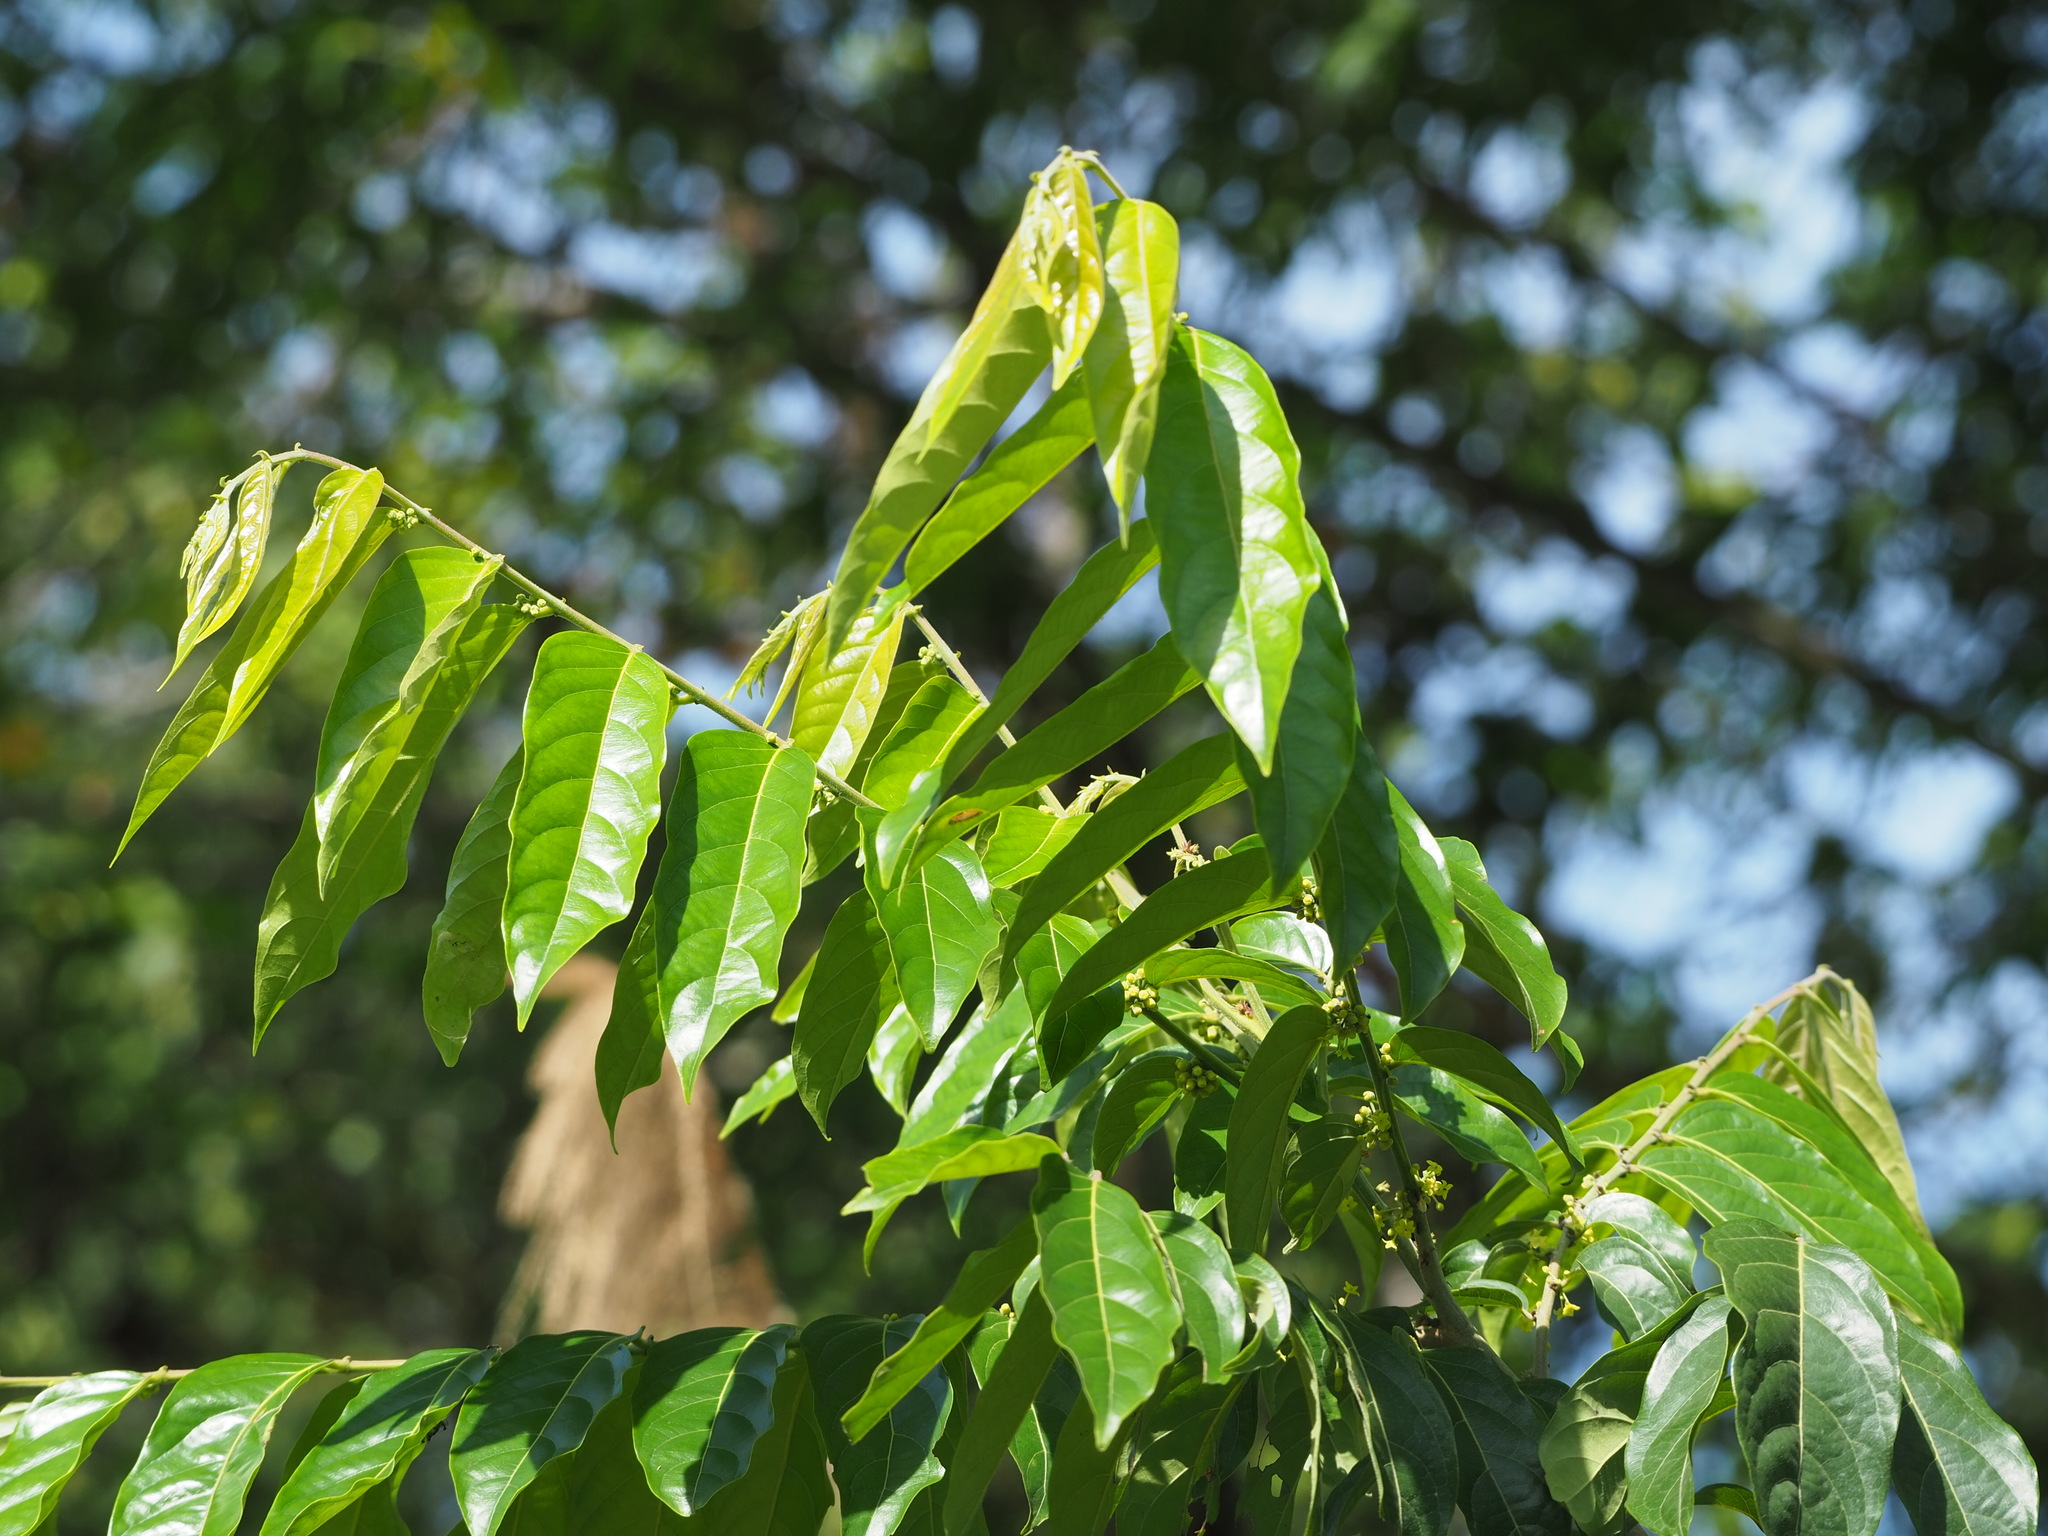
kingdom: Plantae
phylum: Tracheophyta
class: Magnoliopsida
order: Malpighiales
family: Phyllanthaceae
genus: Glochidion
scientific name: Glochidion philippicum
